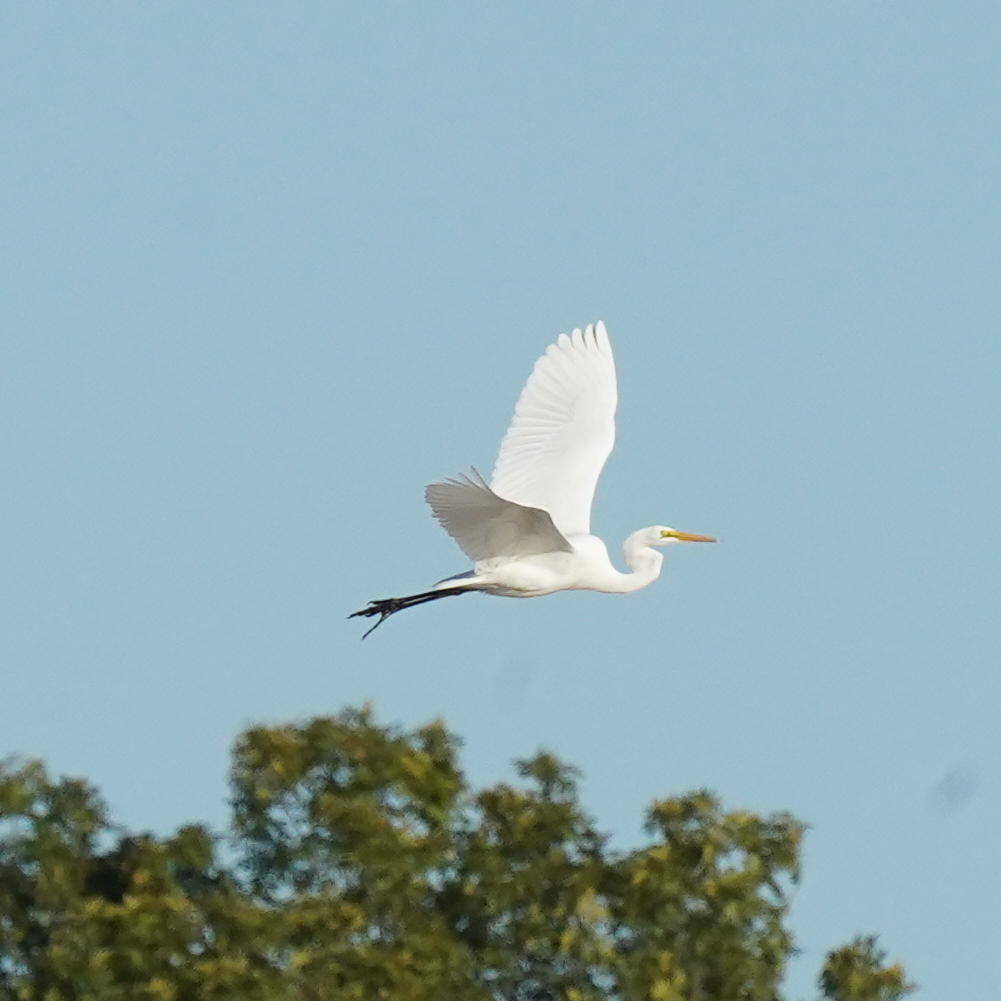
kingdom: Animalia
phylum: Chordata
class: Aves
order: Pelecaniformes
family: Ardeidae
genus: Ardea
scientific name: Ardea alba
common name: Great egret
